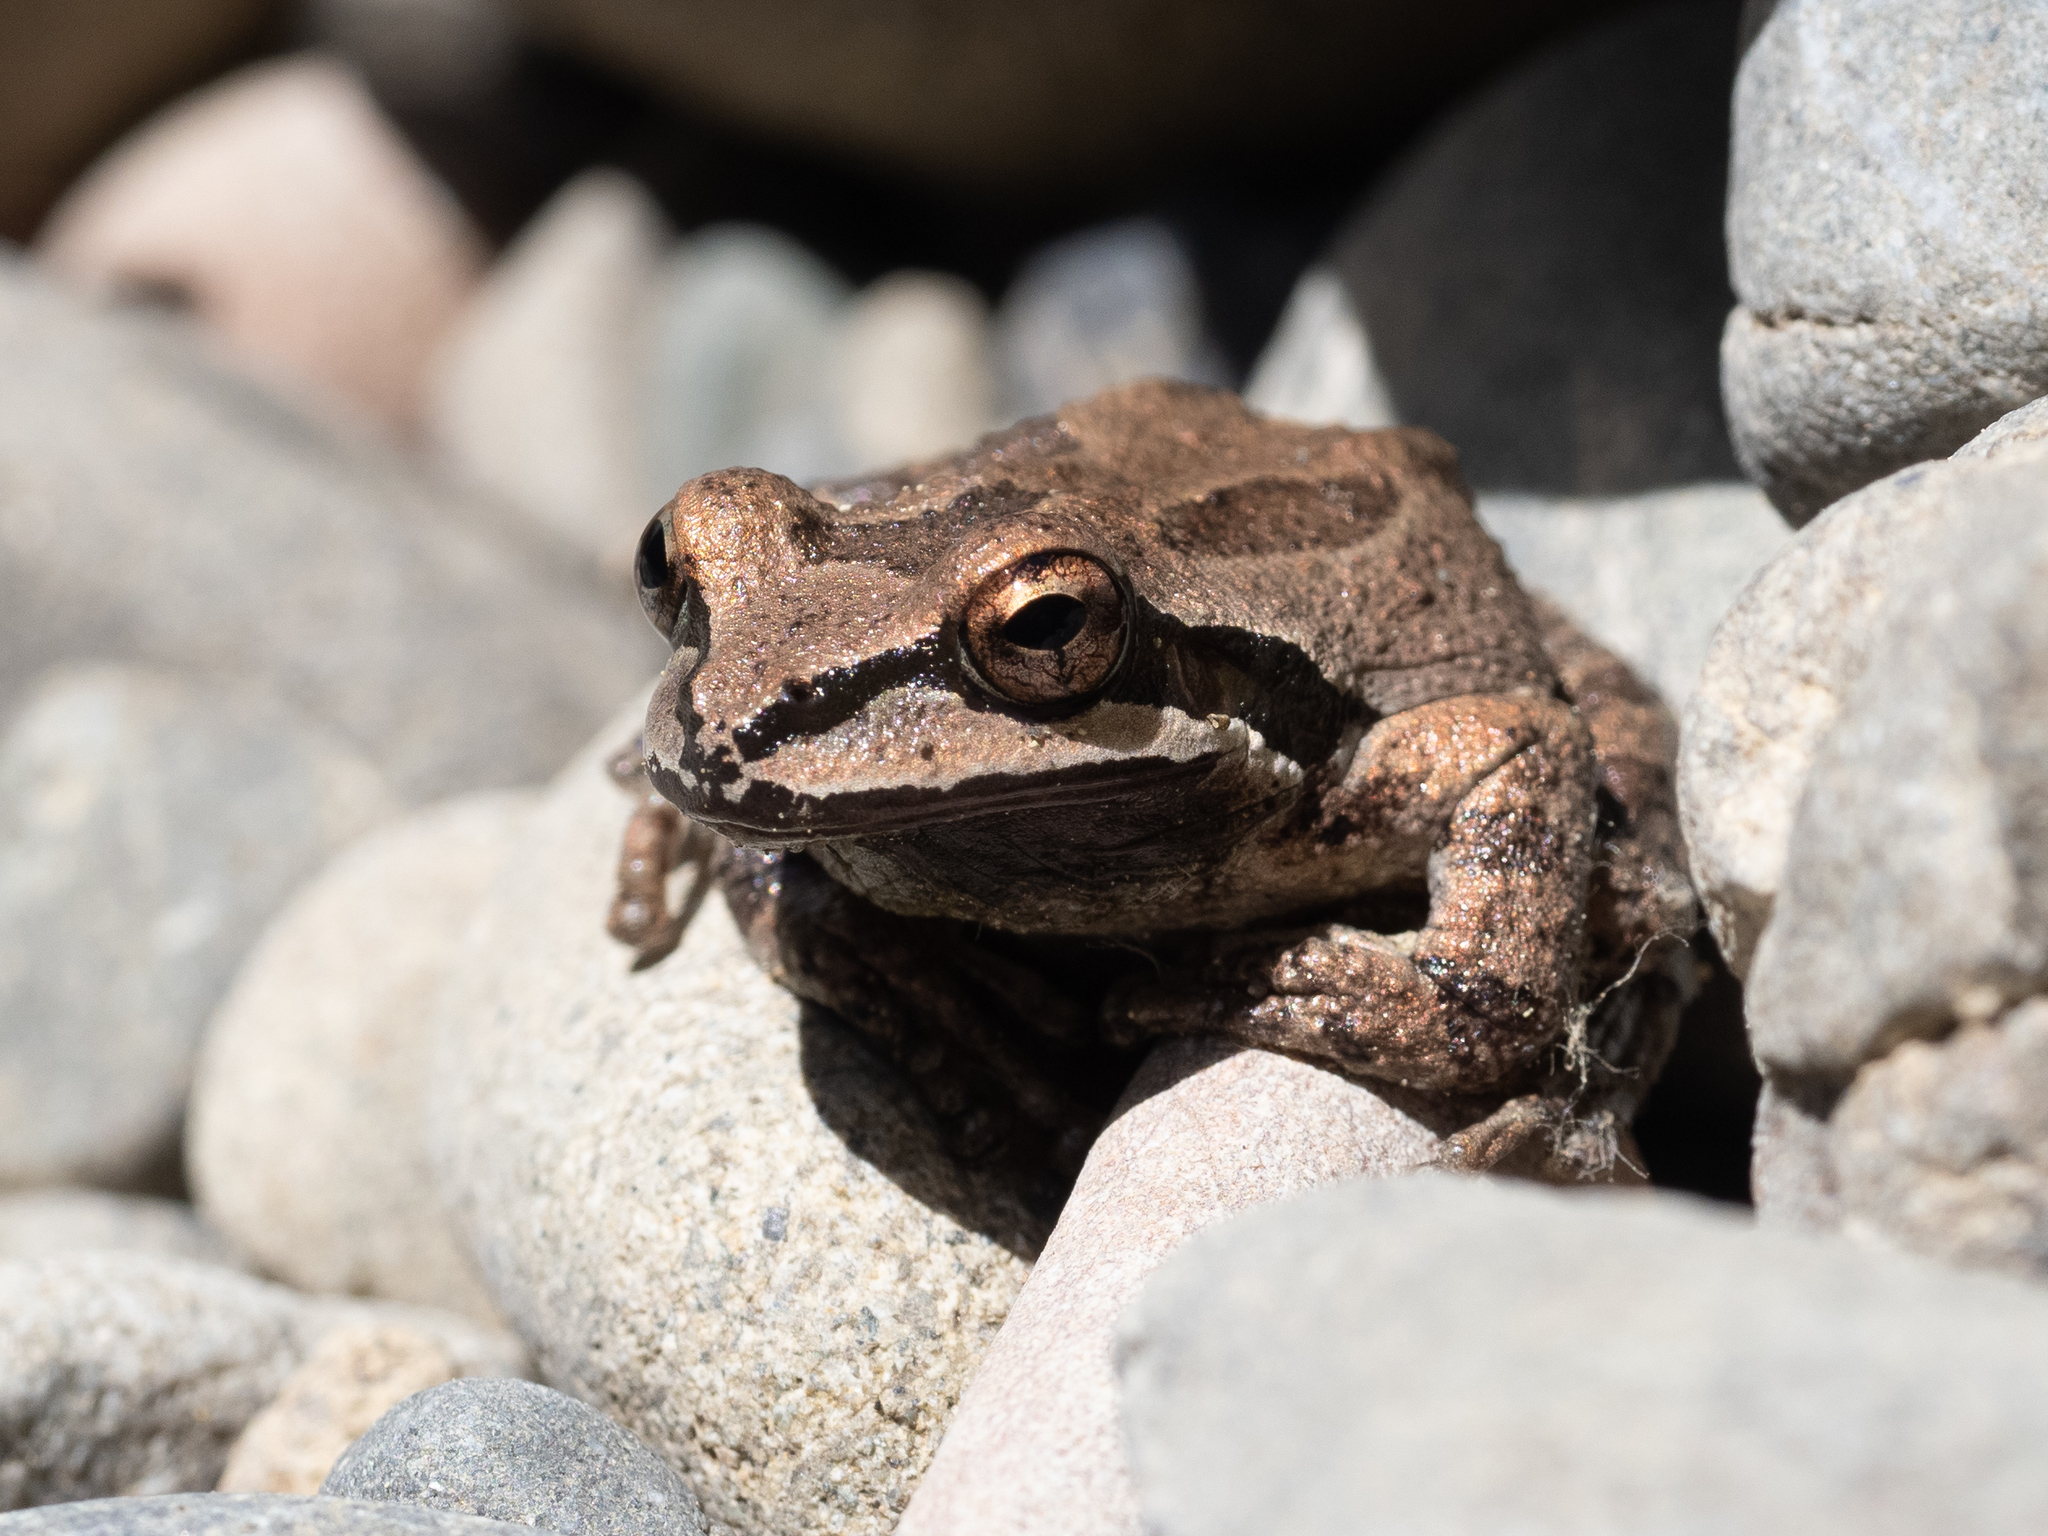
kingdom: Animalia
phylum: Chordata
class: Amphibia
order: Anura
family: Hylidae
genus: Pseudacris
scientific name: Pseudacris regilla
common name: Pacific chorus frog
